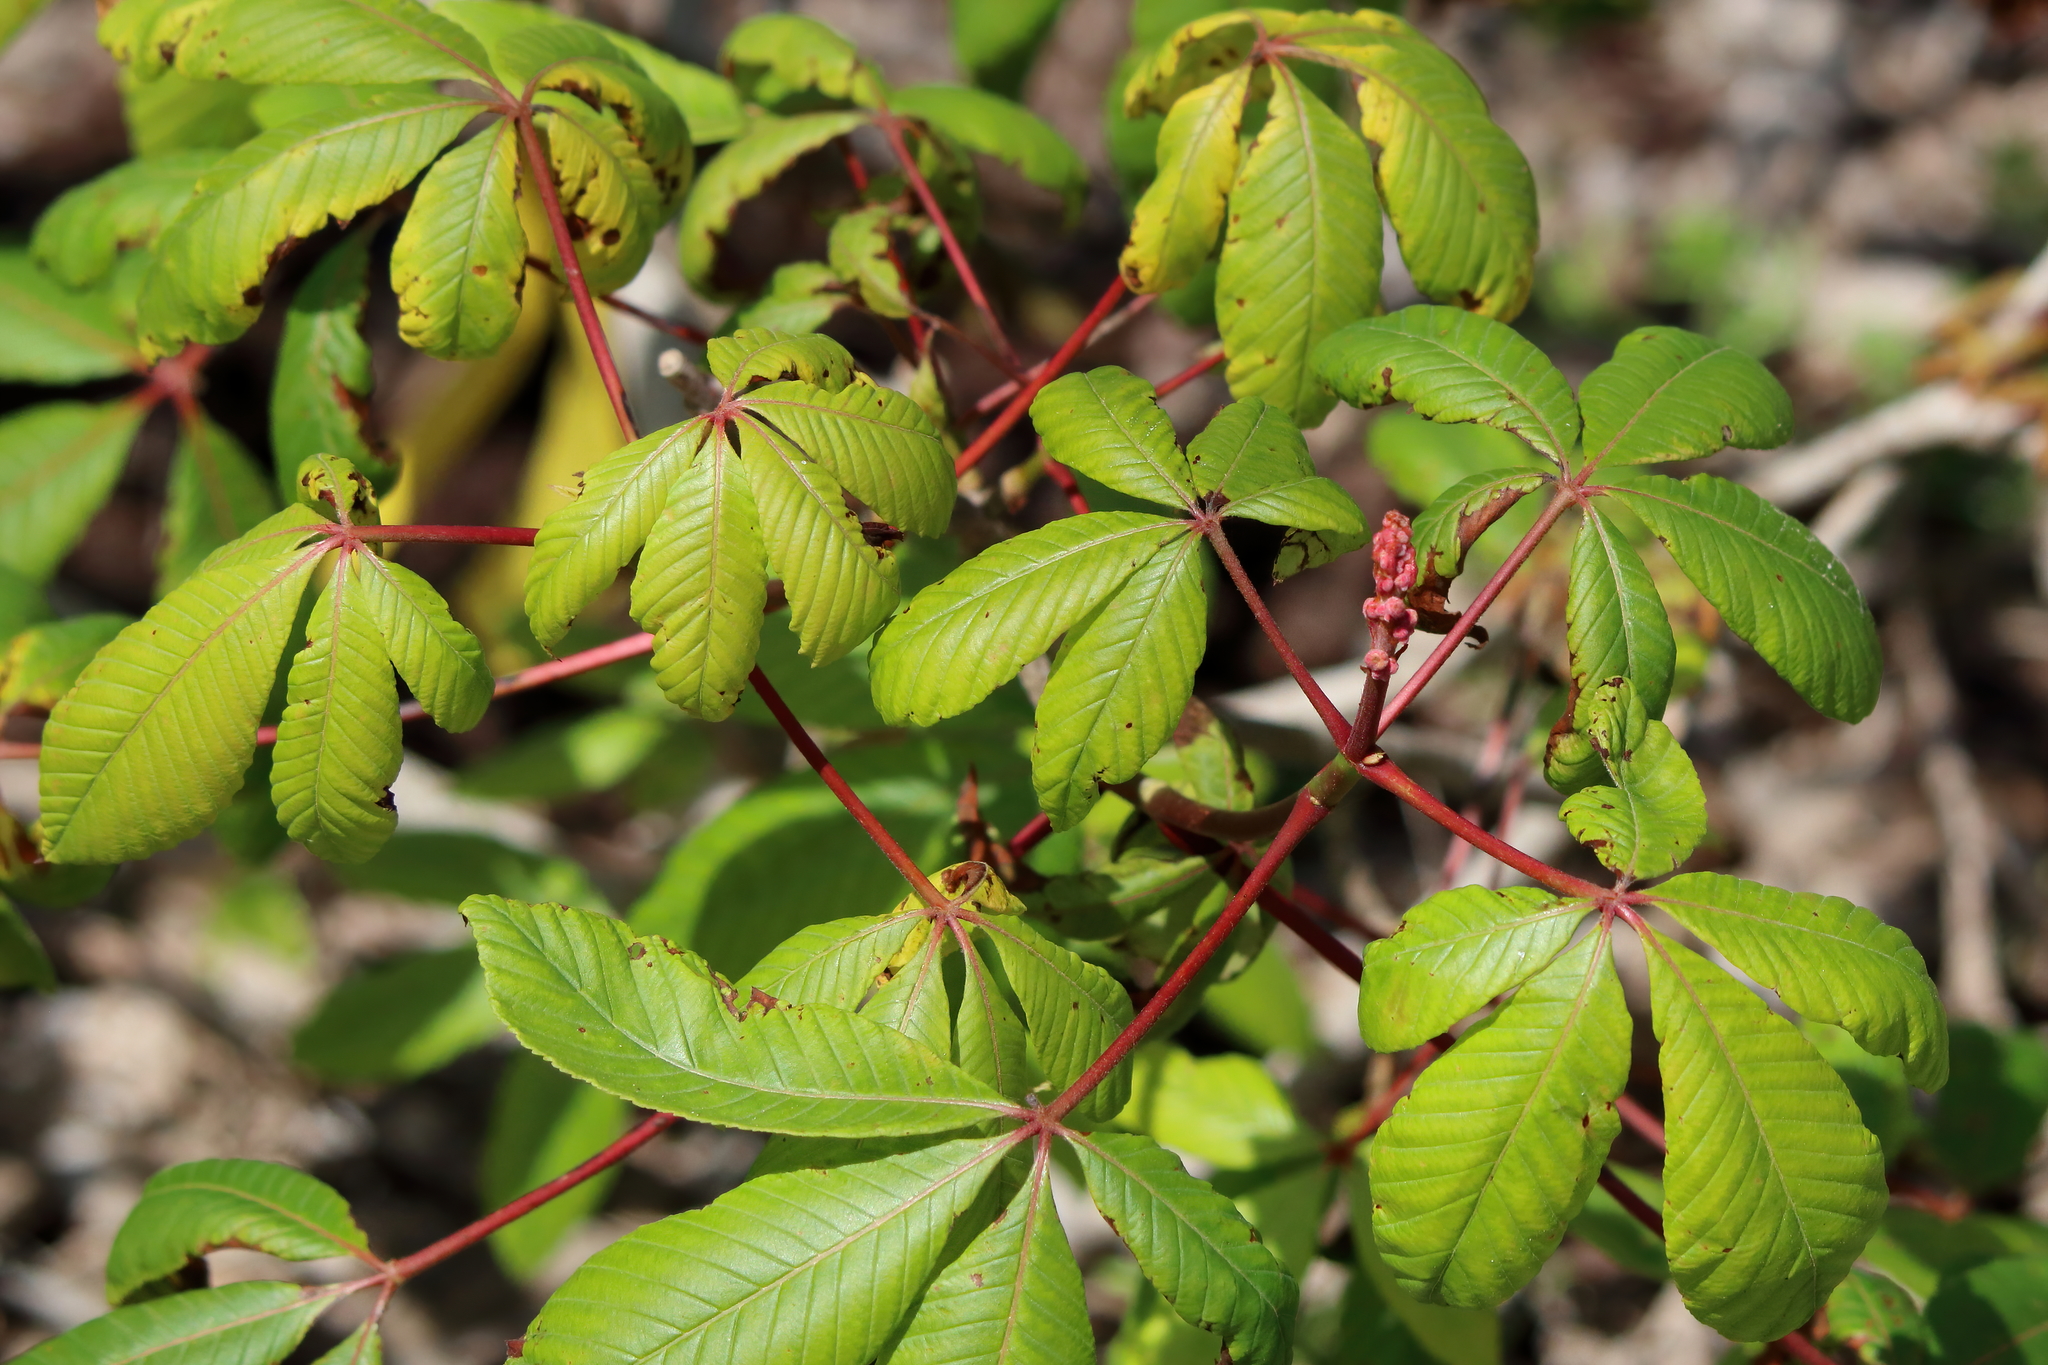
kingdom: Plantae
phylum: Tracheophyta
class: Magnoliopsida
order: Sapindales
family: Sapindaceae
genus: Aesculus
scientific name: Aesculus pavia
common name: Red buckeye
